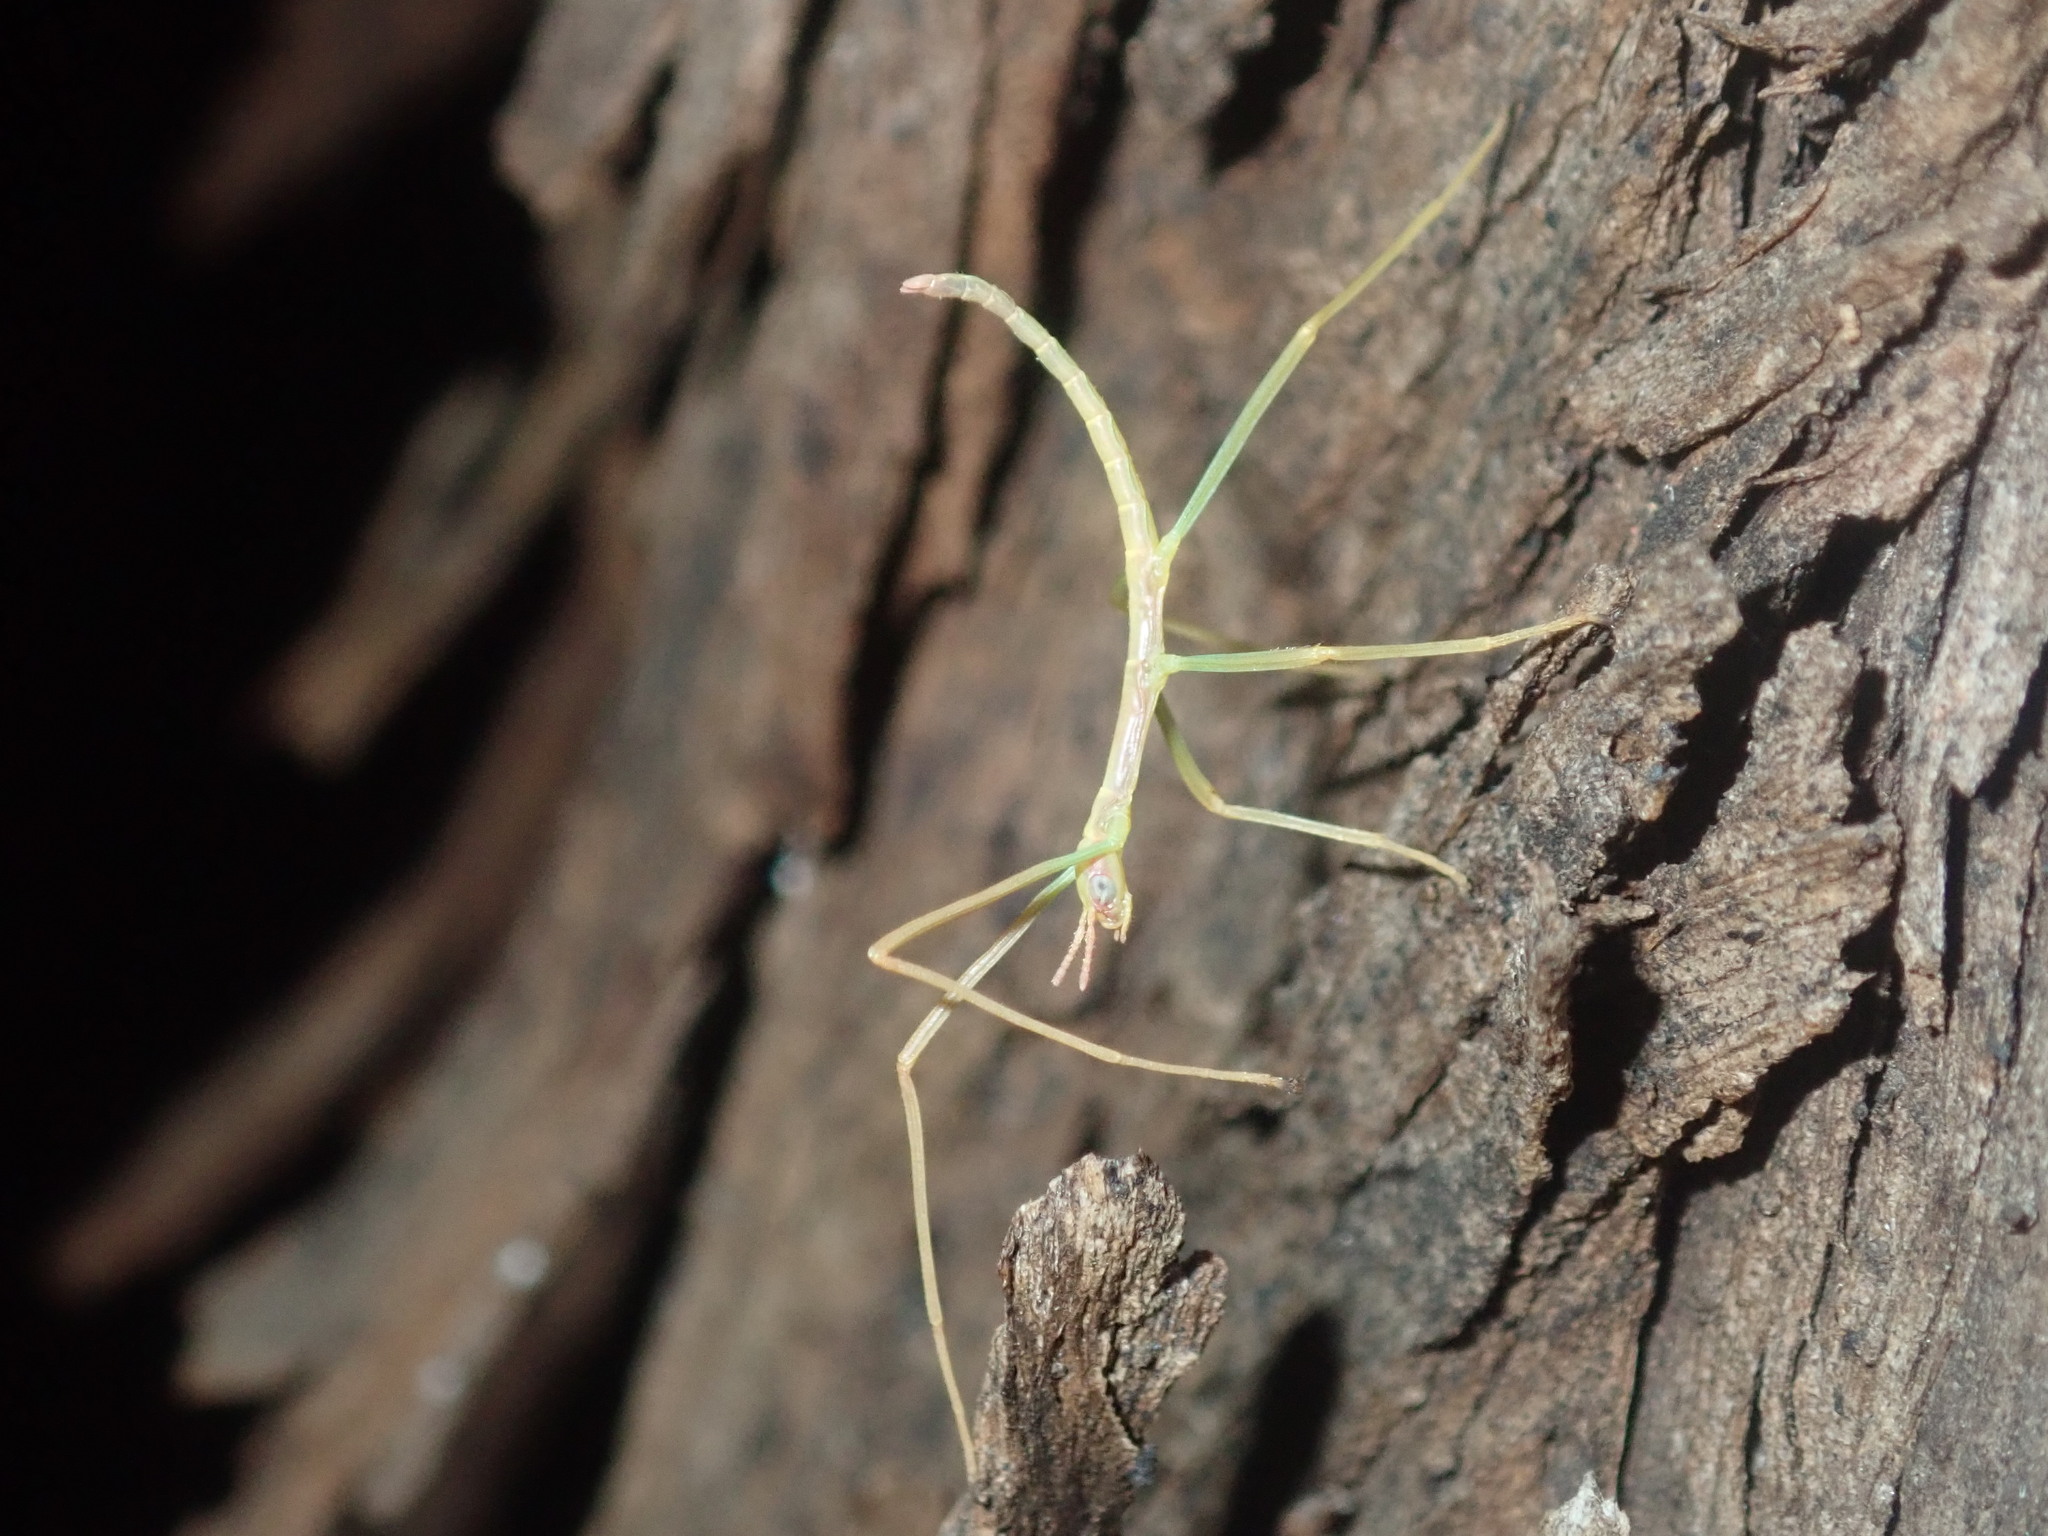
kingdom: Animalia
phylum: Arthropoda
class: Insecta
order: Phasmida
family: Phasmatidae
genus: Didymuria
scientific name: Didymuria violescens
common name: Spur-legged stick-insect
